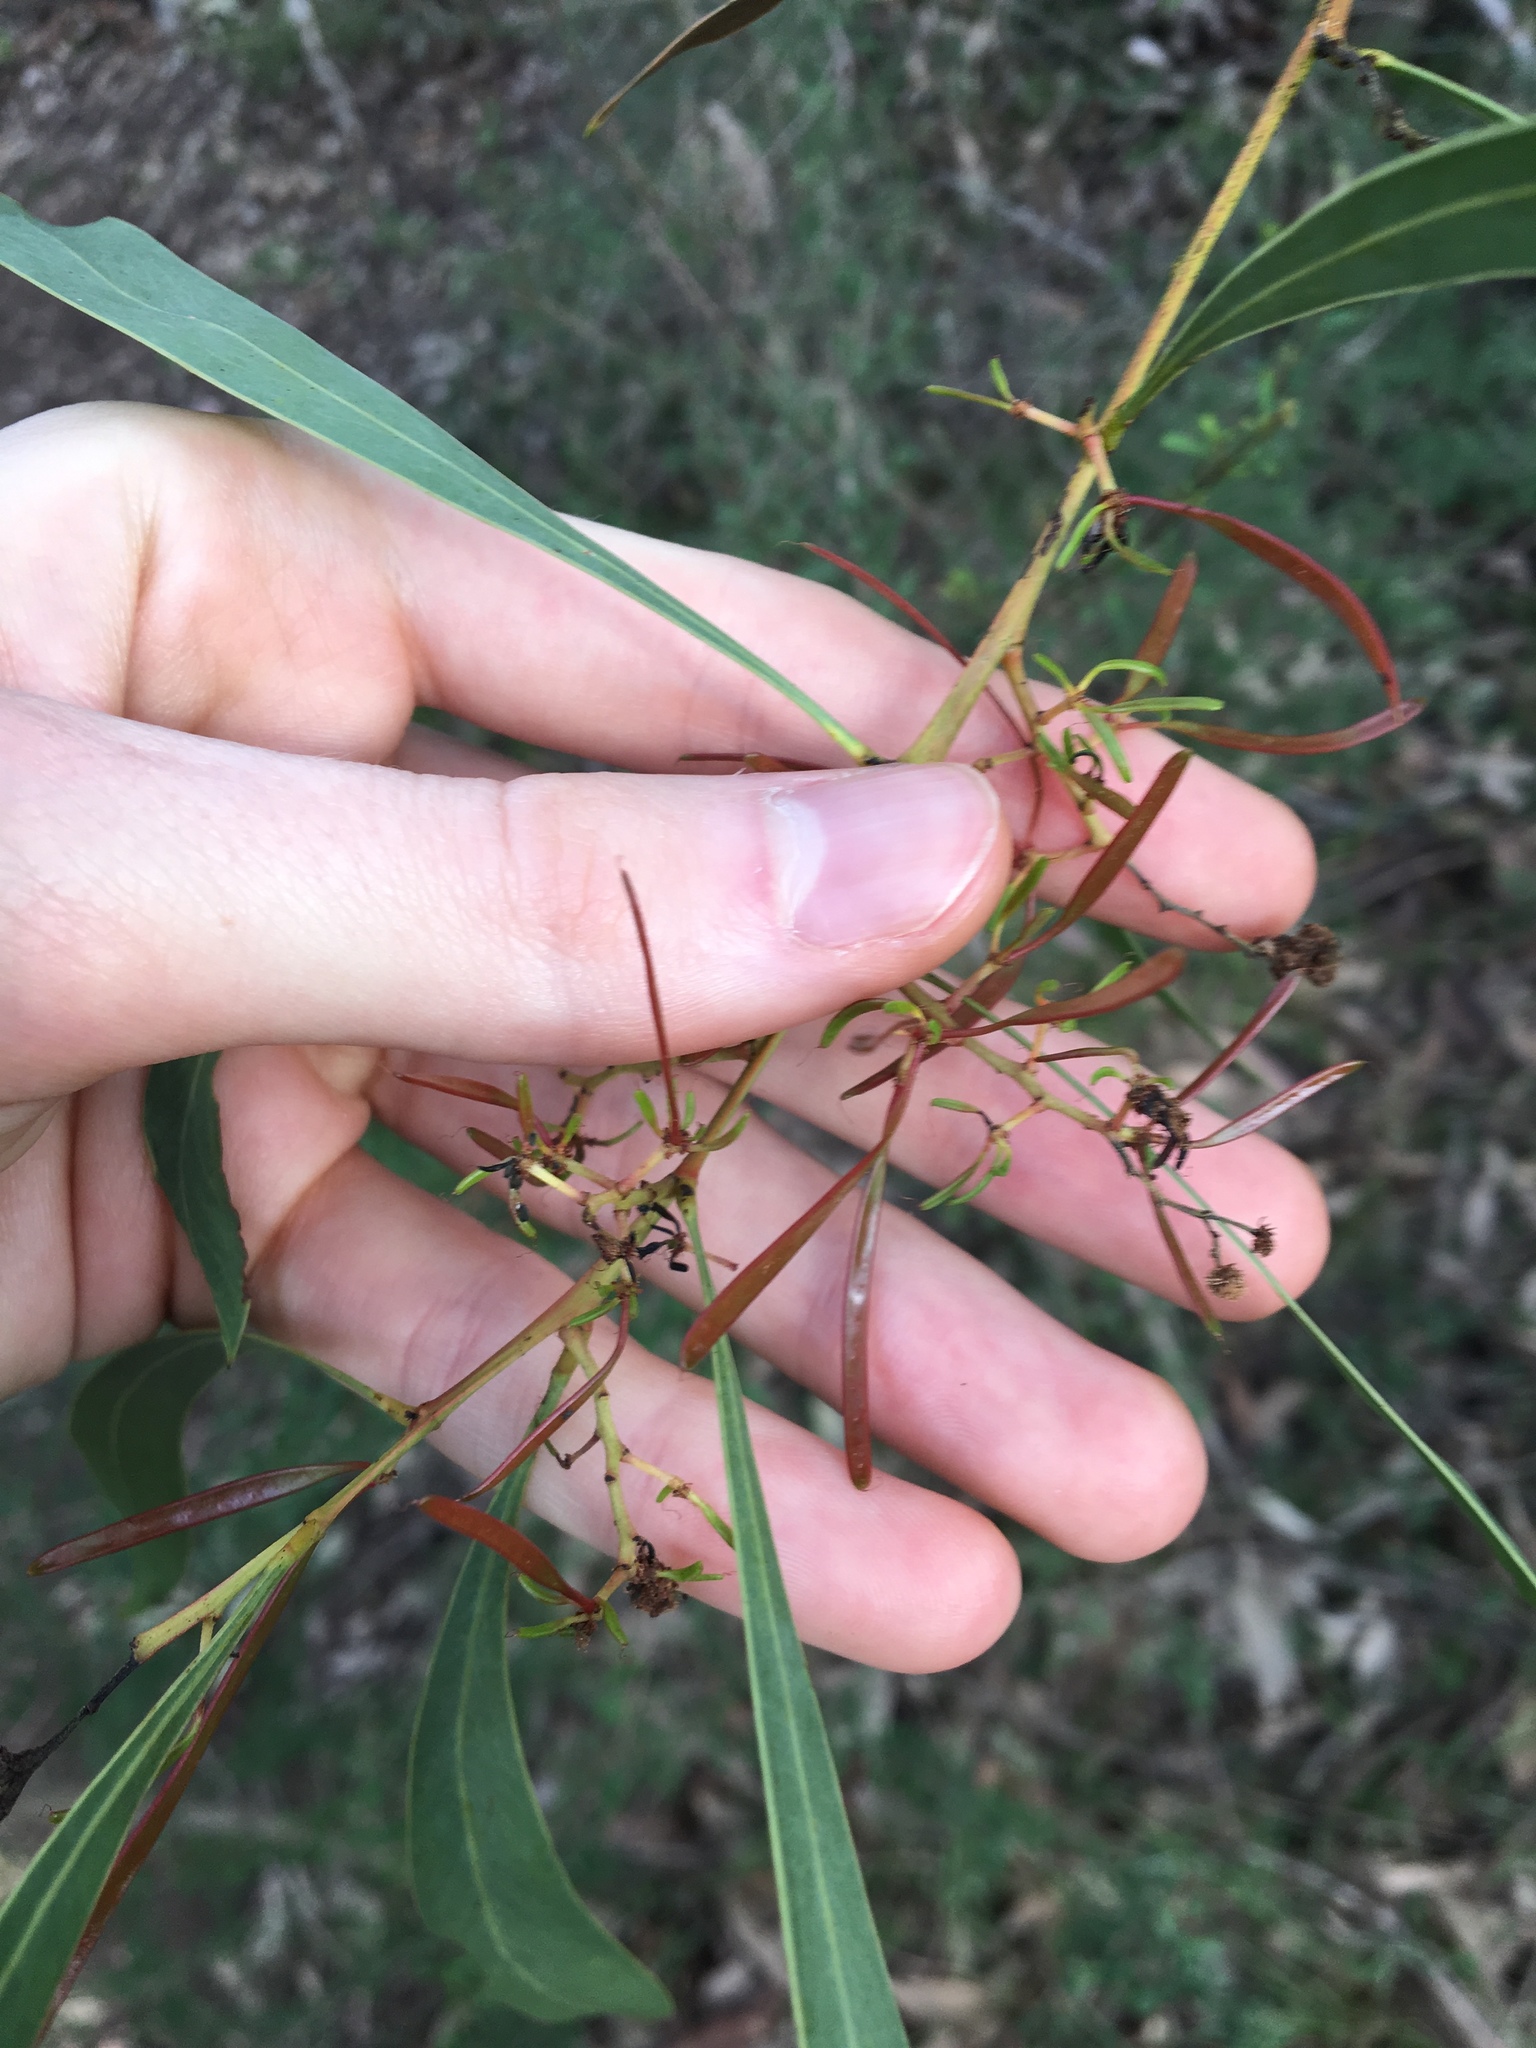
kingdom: Plantae
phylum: Tracheophyta
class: Magnoliopsida
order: Fabales
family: Fabaceae
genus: Acacia
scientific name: Acacia falcata
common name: Burra acacia
